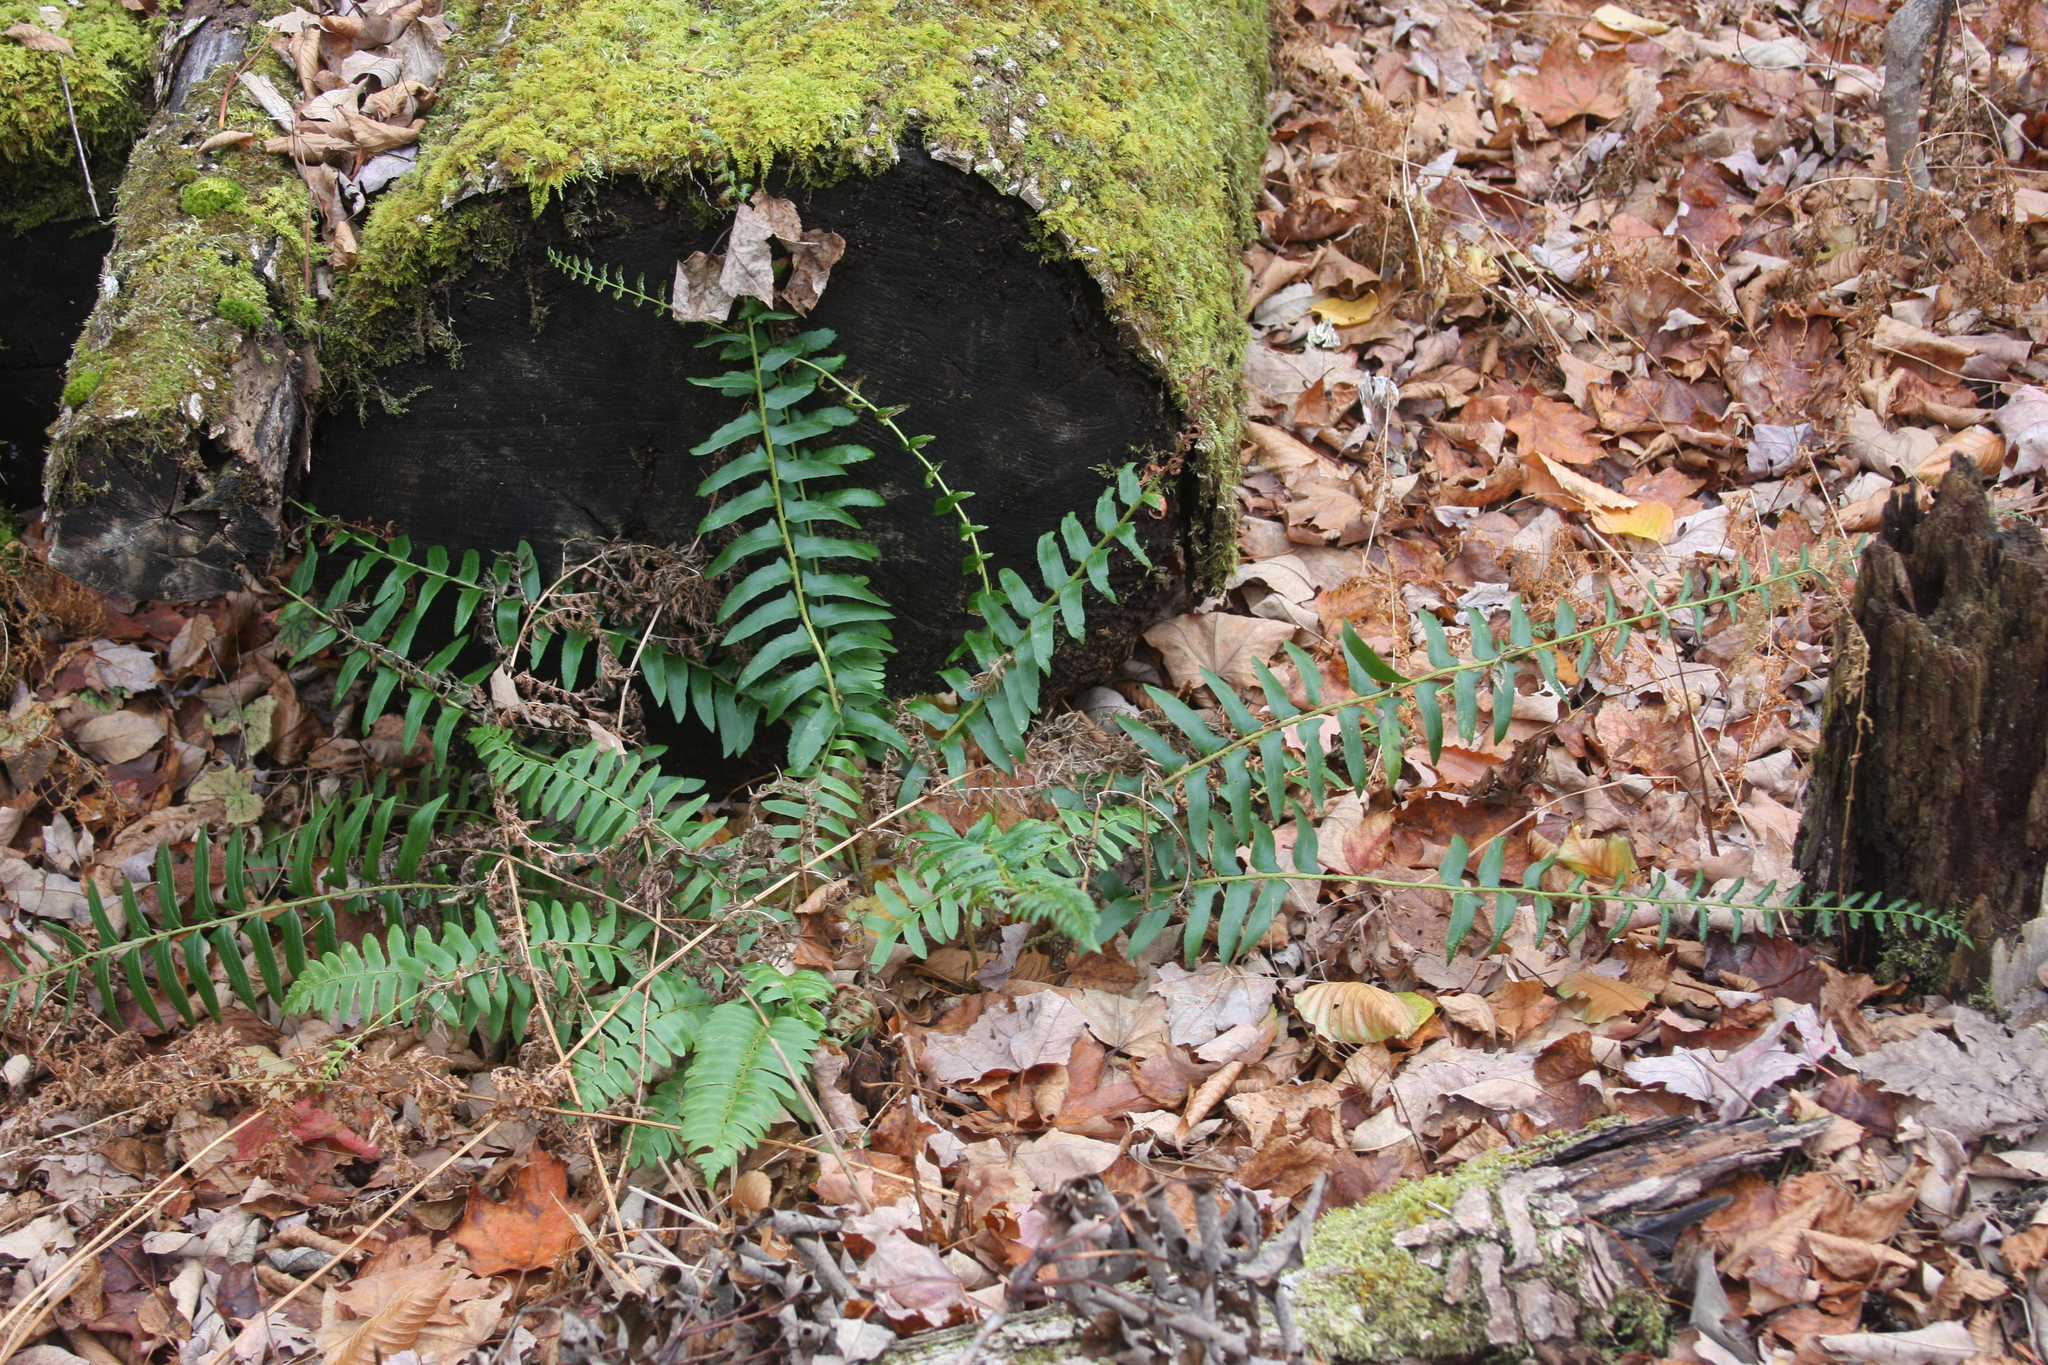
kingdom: Plantae
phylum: Tracheophyta
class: Polypodiopsida
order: Polypodiales
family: Dryopteridaceae
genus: Polystichum
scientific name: Polystichum acrostichoides
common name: Christmas fern
